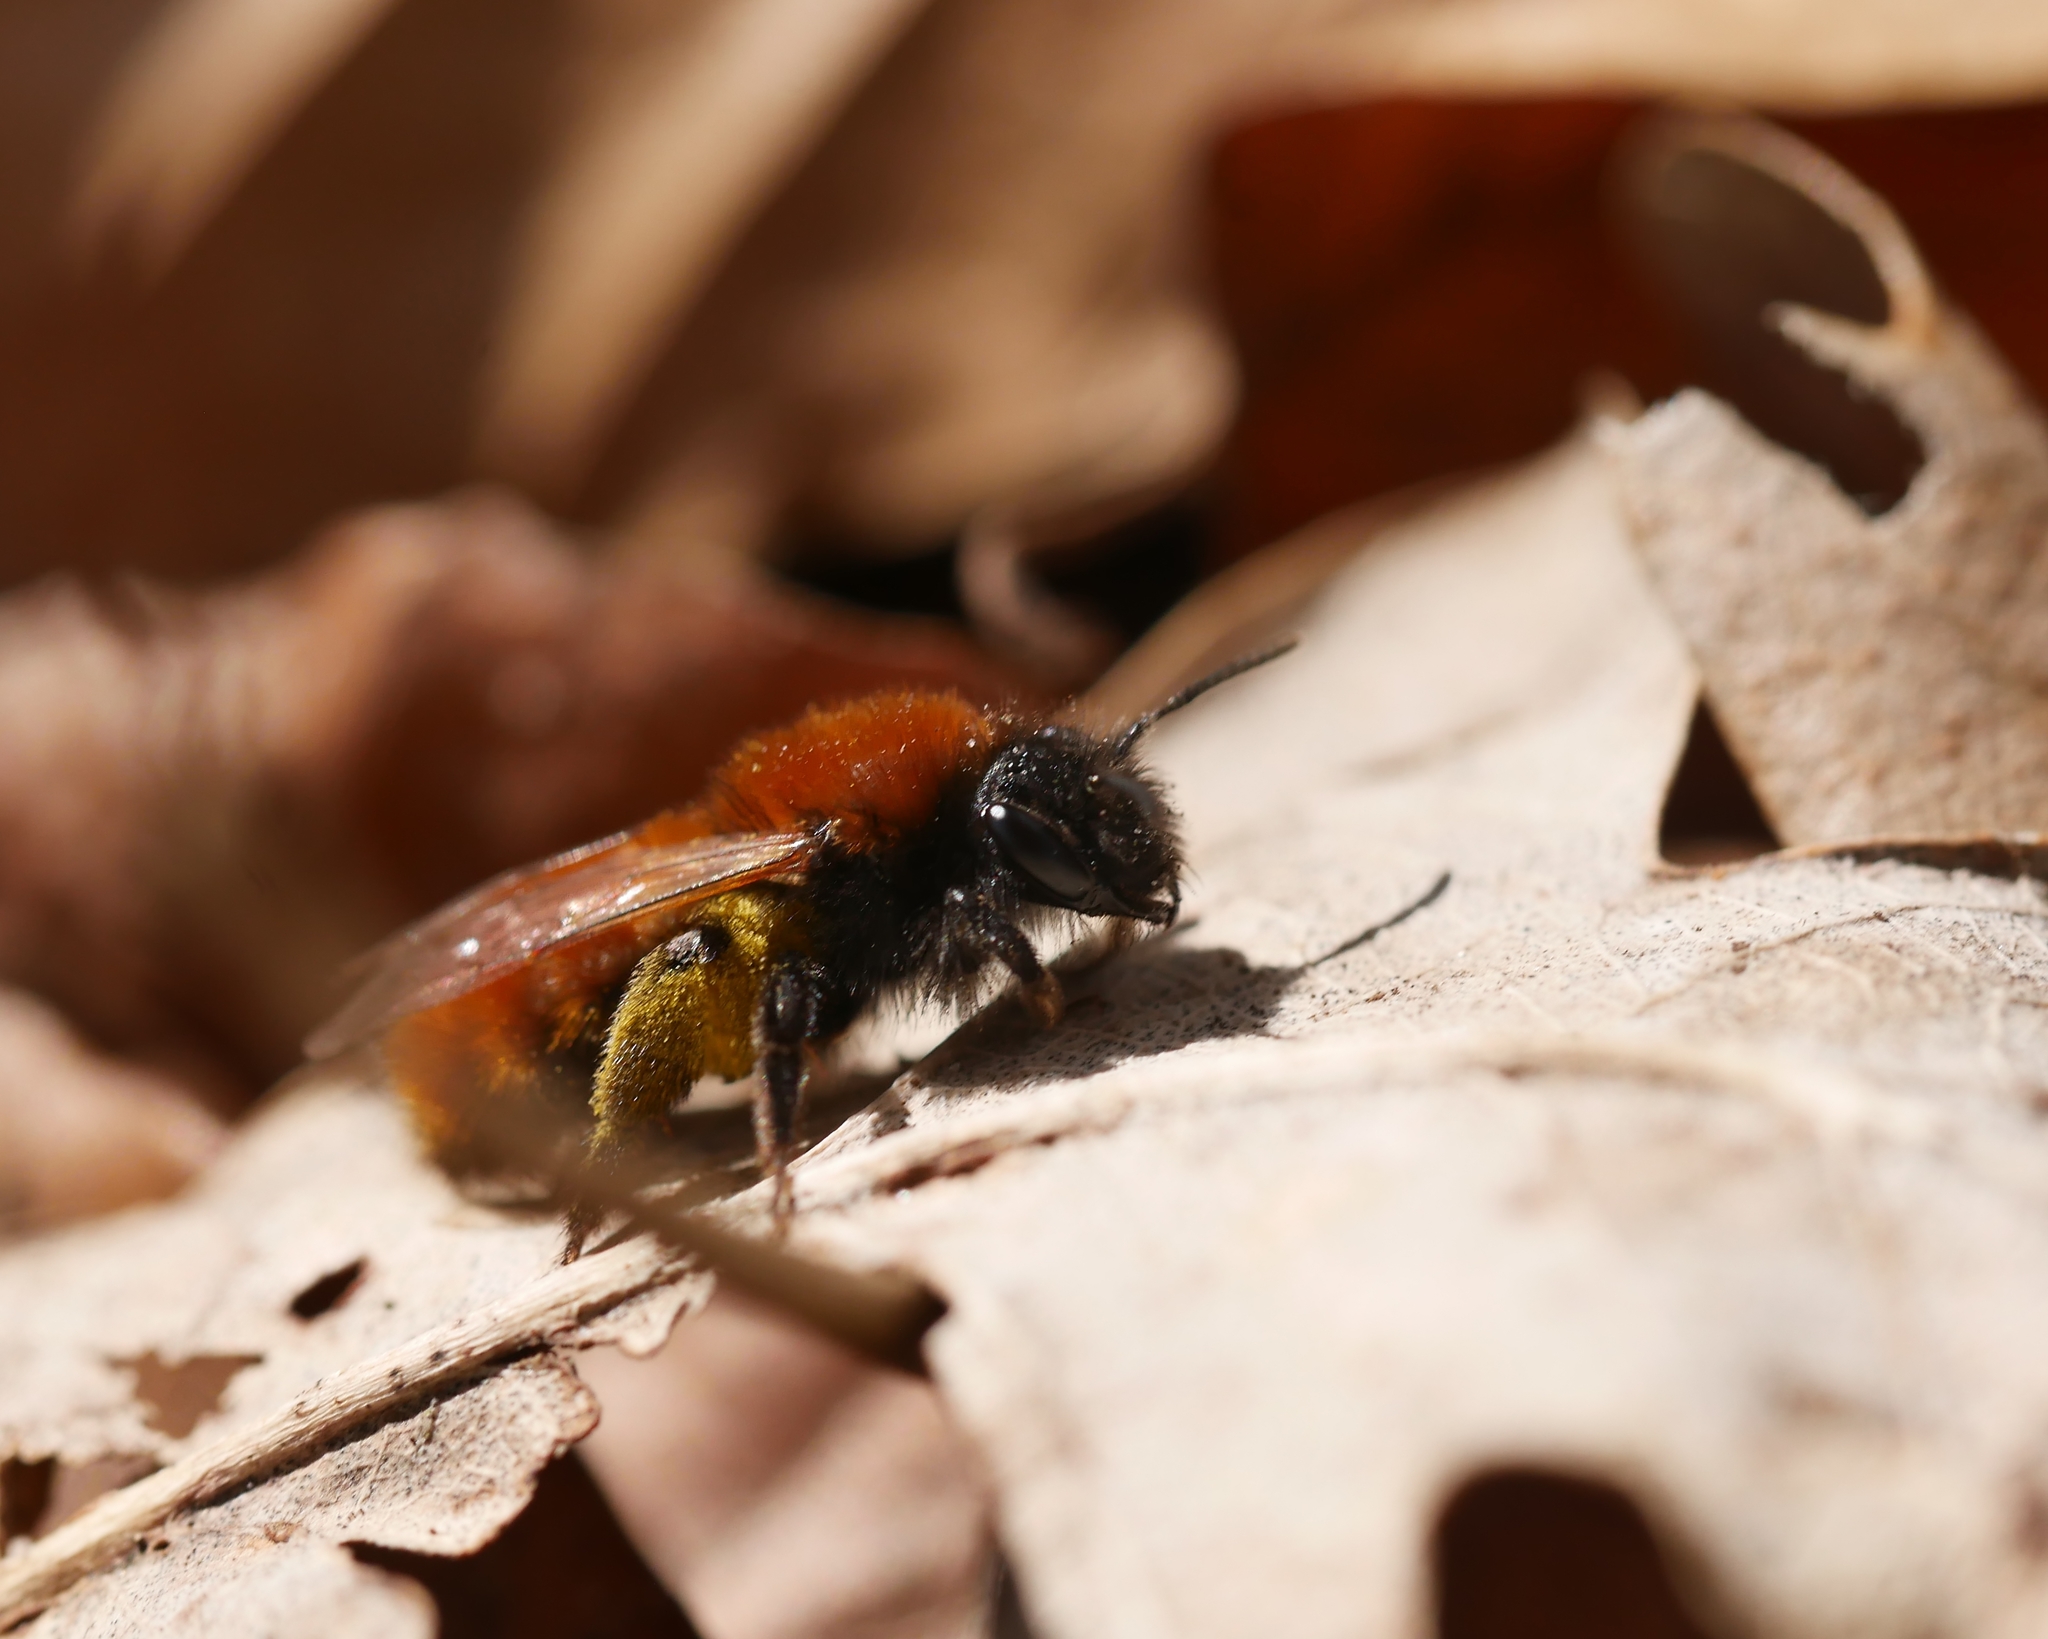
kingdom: Animalia
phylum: Arthropoda
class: Insecta
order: Hymenoptera
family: Andrenidae
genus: Andrena
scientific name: Andrena fulva
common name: Tawny mining bee
